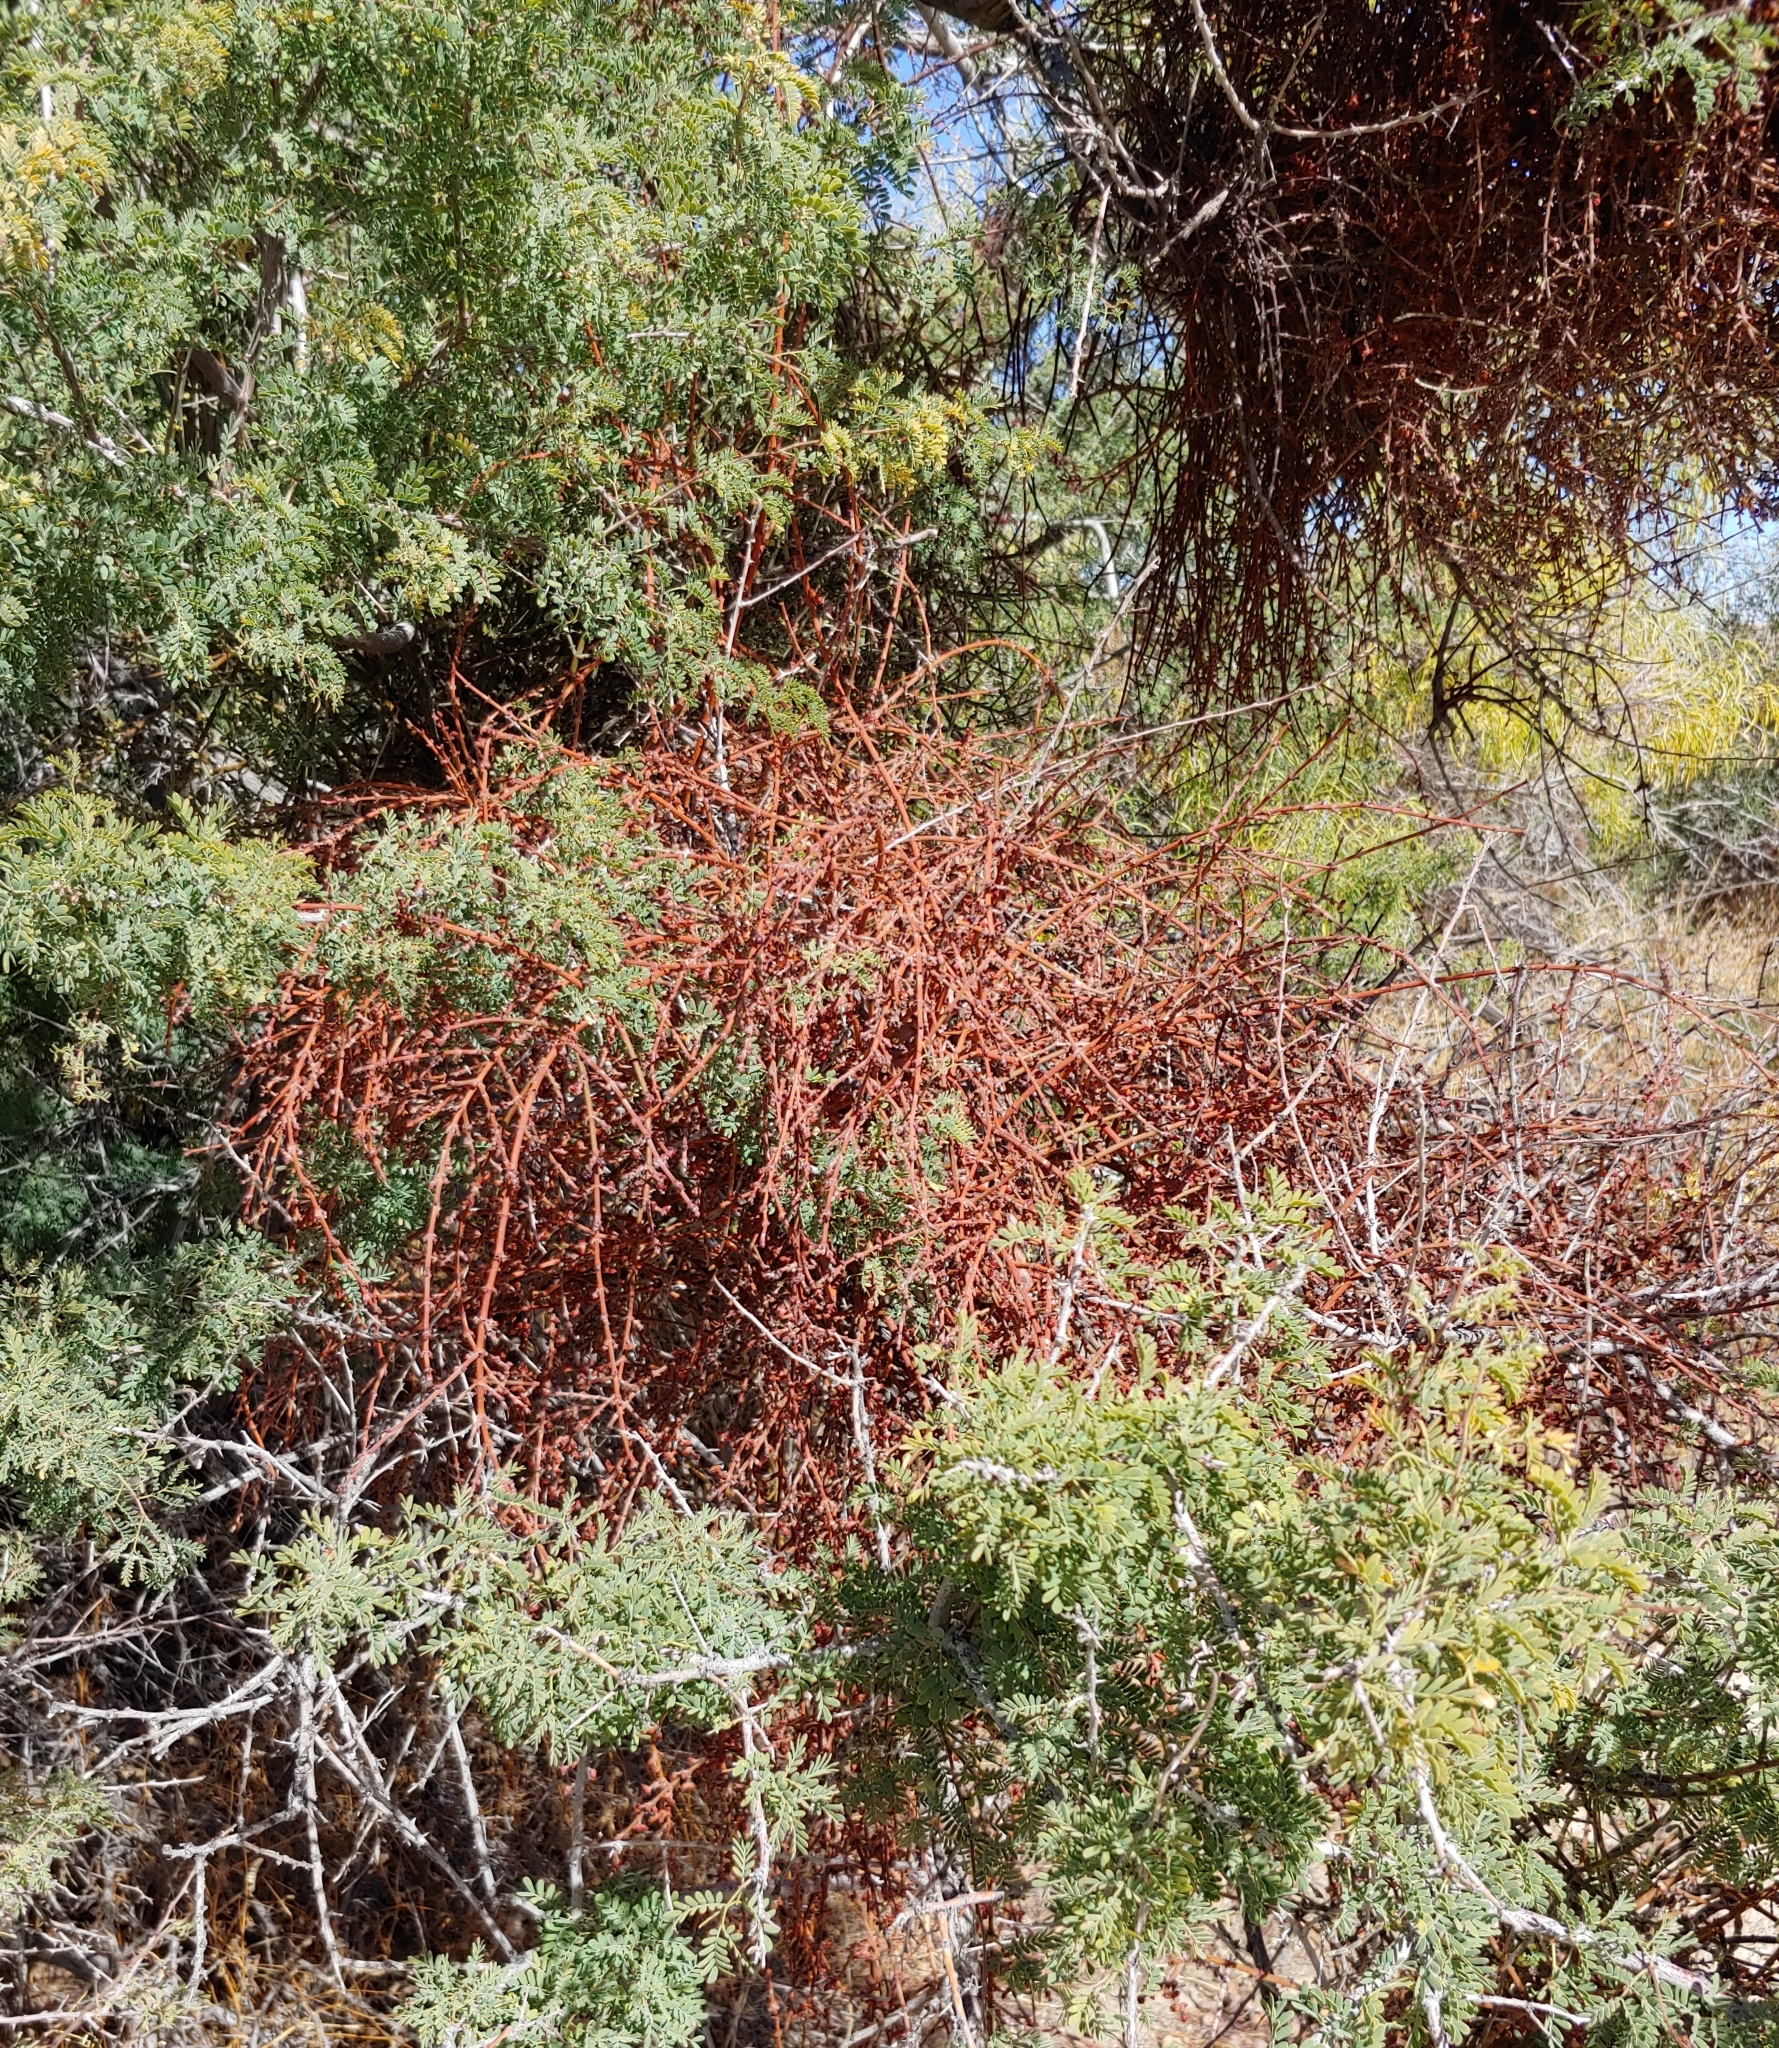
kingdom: Plantae
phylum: Tracheophyta
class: Magnoliopsida
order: Santalales
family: Viscaceae
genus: Phoradendron
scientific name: Phoradendron californicum
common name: Acacia mistletoe
